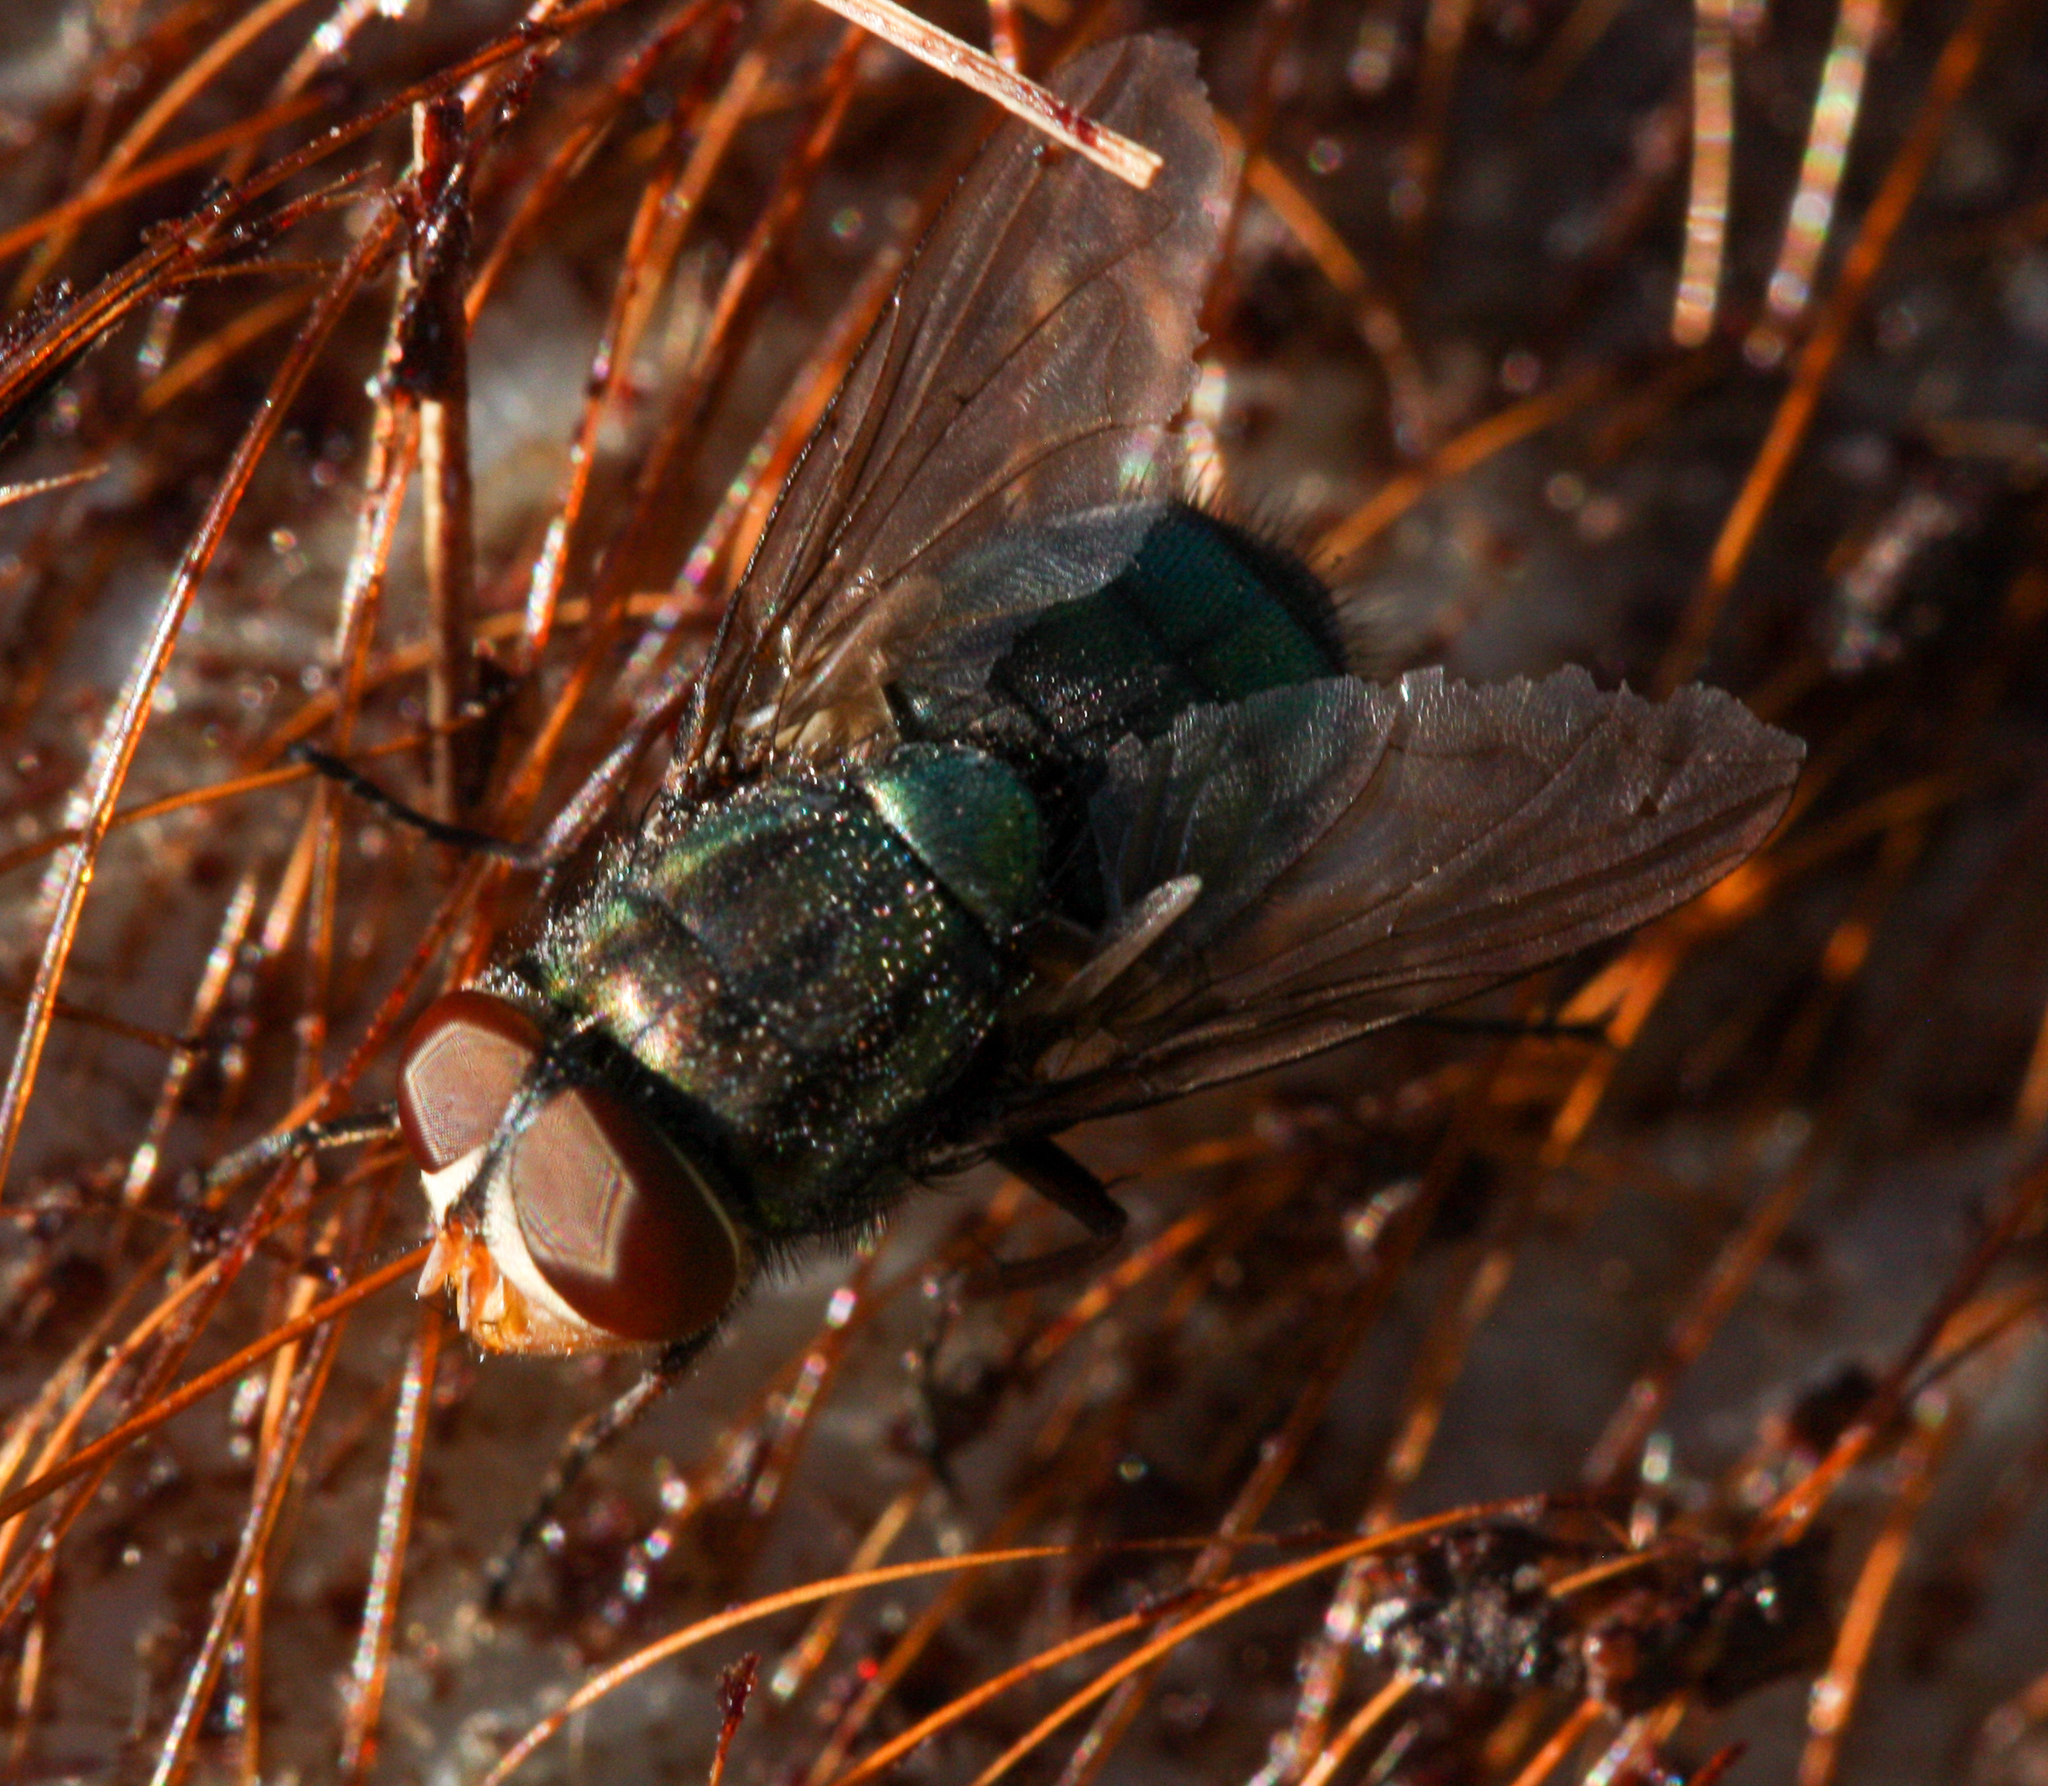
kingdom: Animalia
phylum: Arthropoda
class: Insecta
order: Diptera
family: Calliphoridae
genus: Cochliomyia
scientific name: Cochliomyia macellaria
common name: Secondary screwworm
